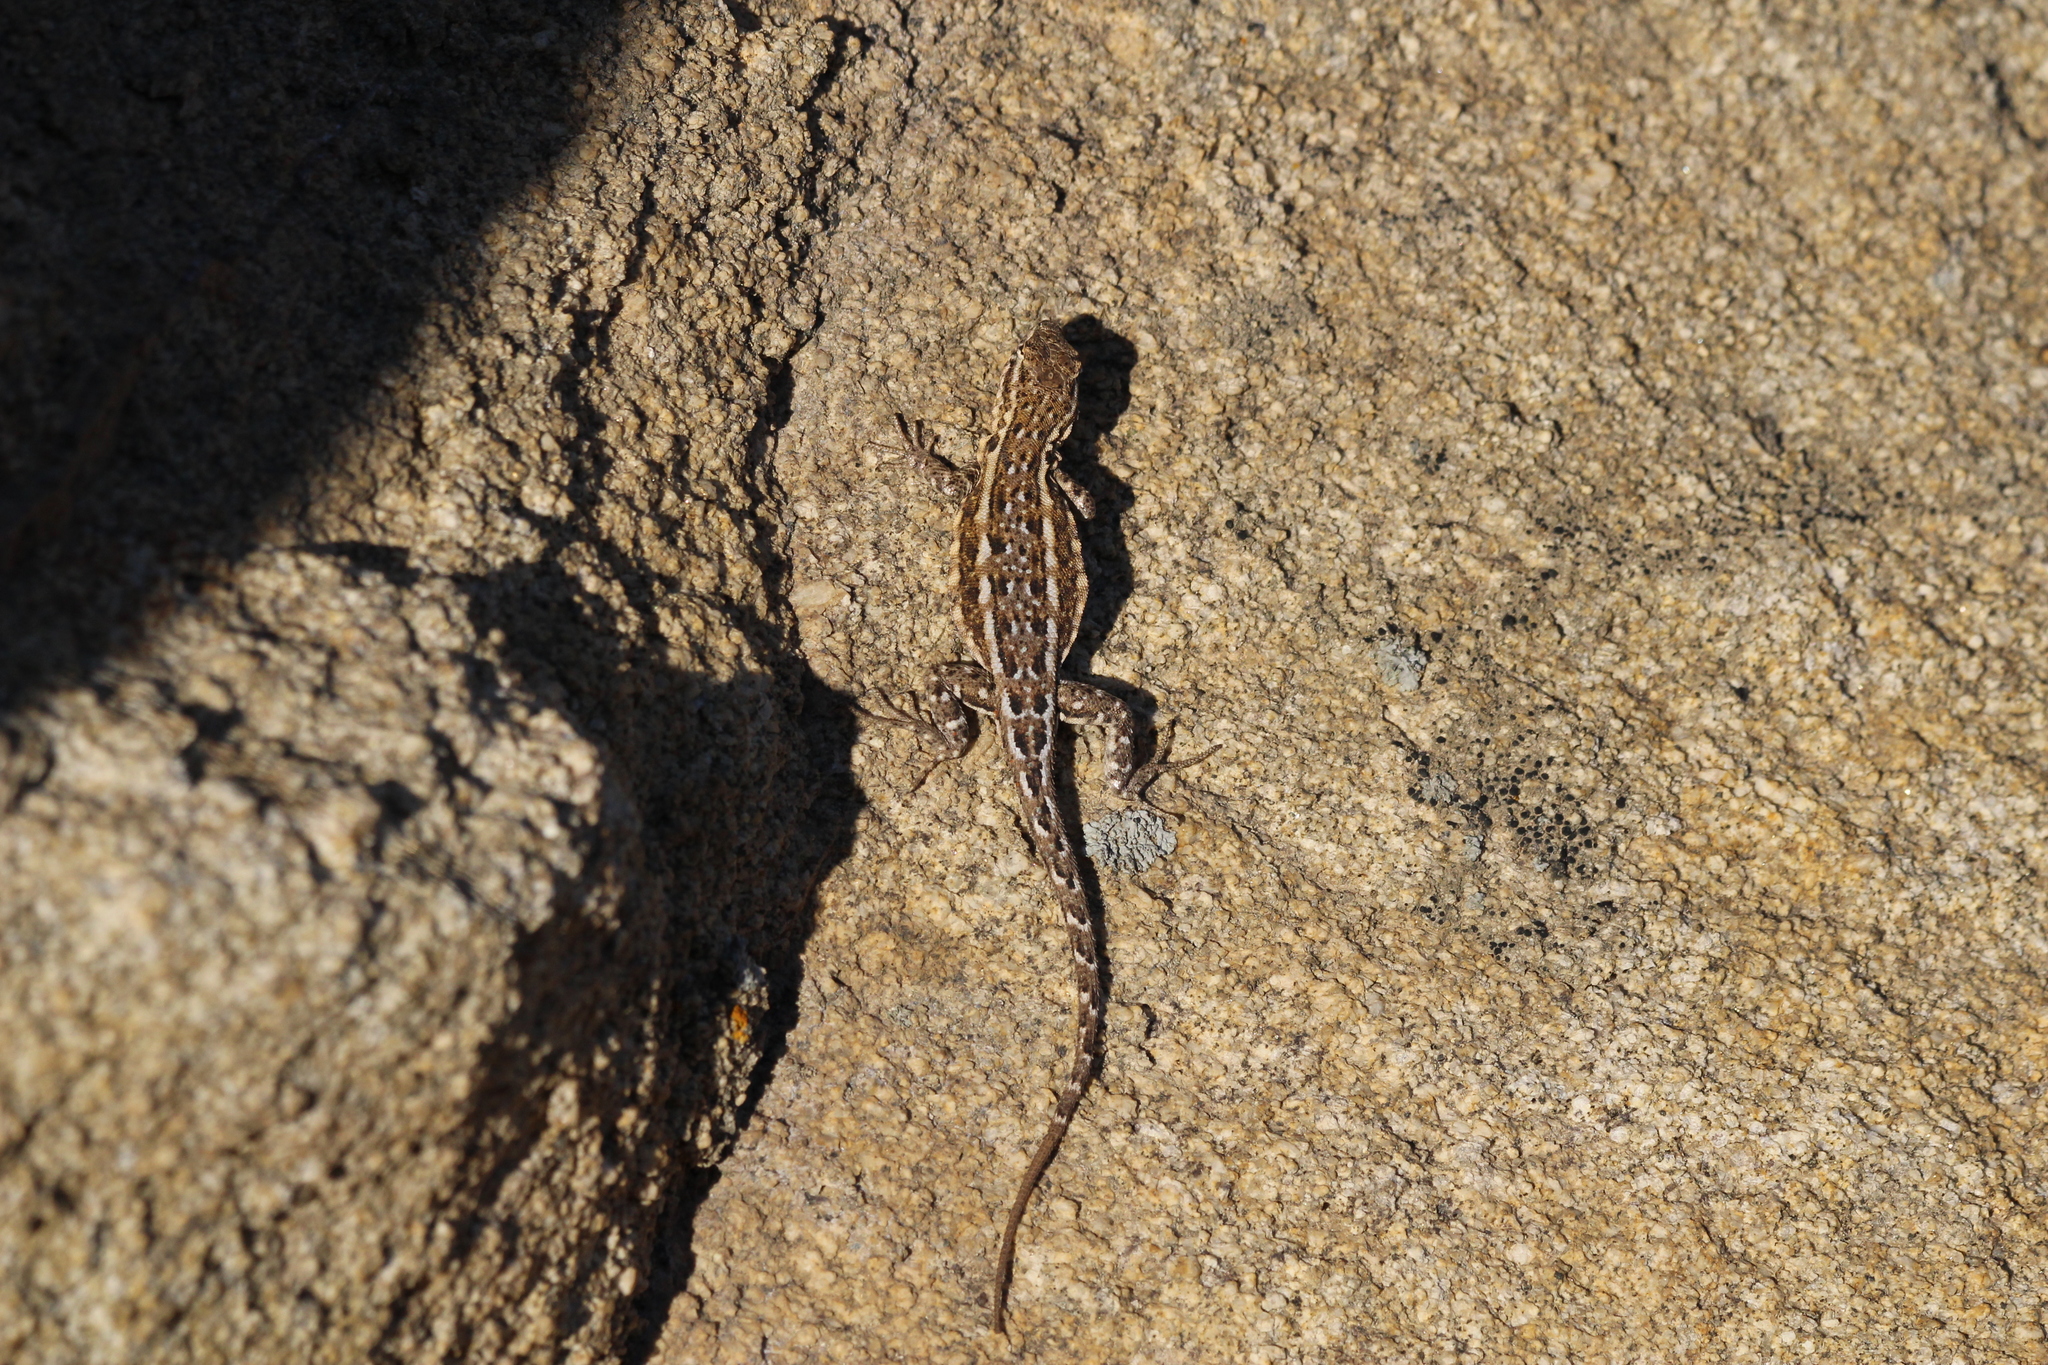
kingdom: Animalia
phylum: Chordata
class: Squamata
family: Phrynosomatidae
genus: Uta
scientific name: Uta stansburiana
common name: Side-blotched lizard
